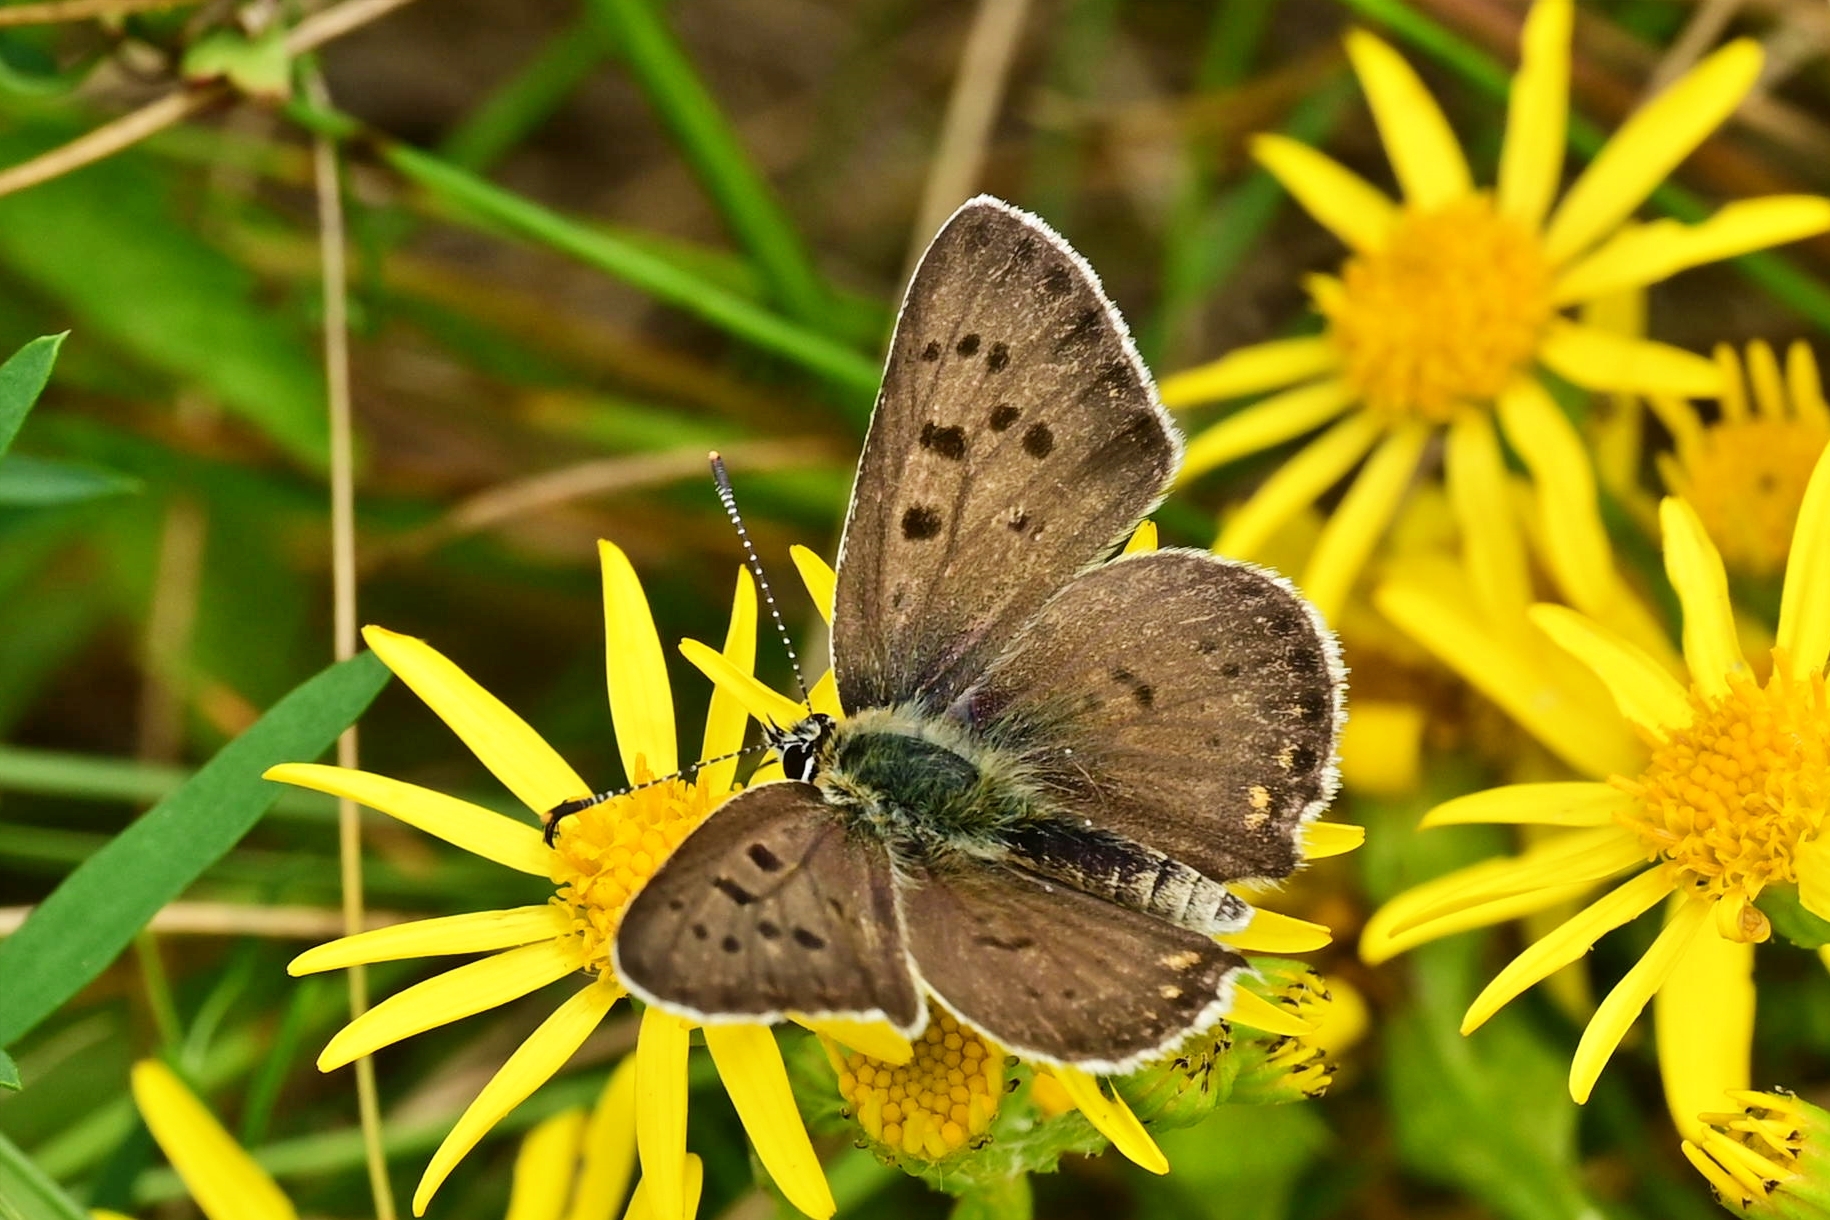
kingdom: Animalia
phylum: Arthropoda
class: Insecta
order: Lepidoptera
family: Lycaenidae
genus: Loweia
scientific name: Loweia tityrus
